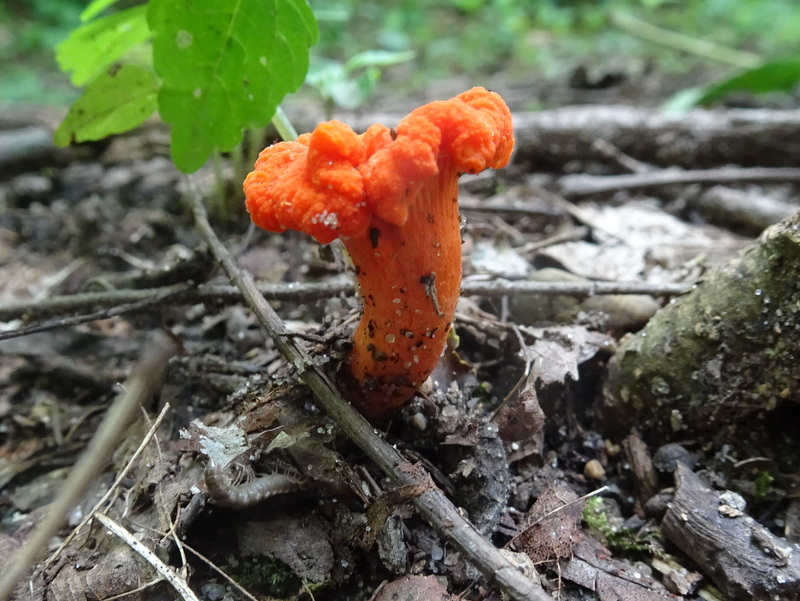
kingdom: Fungi
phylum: Basidiomycota
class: Agaricomycetes
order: Cantharellales
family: Hydnaceae
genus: Cantharellus
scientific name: Cantharellus cinnabarinus
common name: Cinnabar chanterelle
